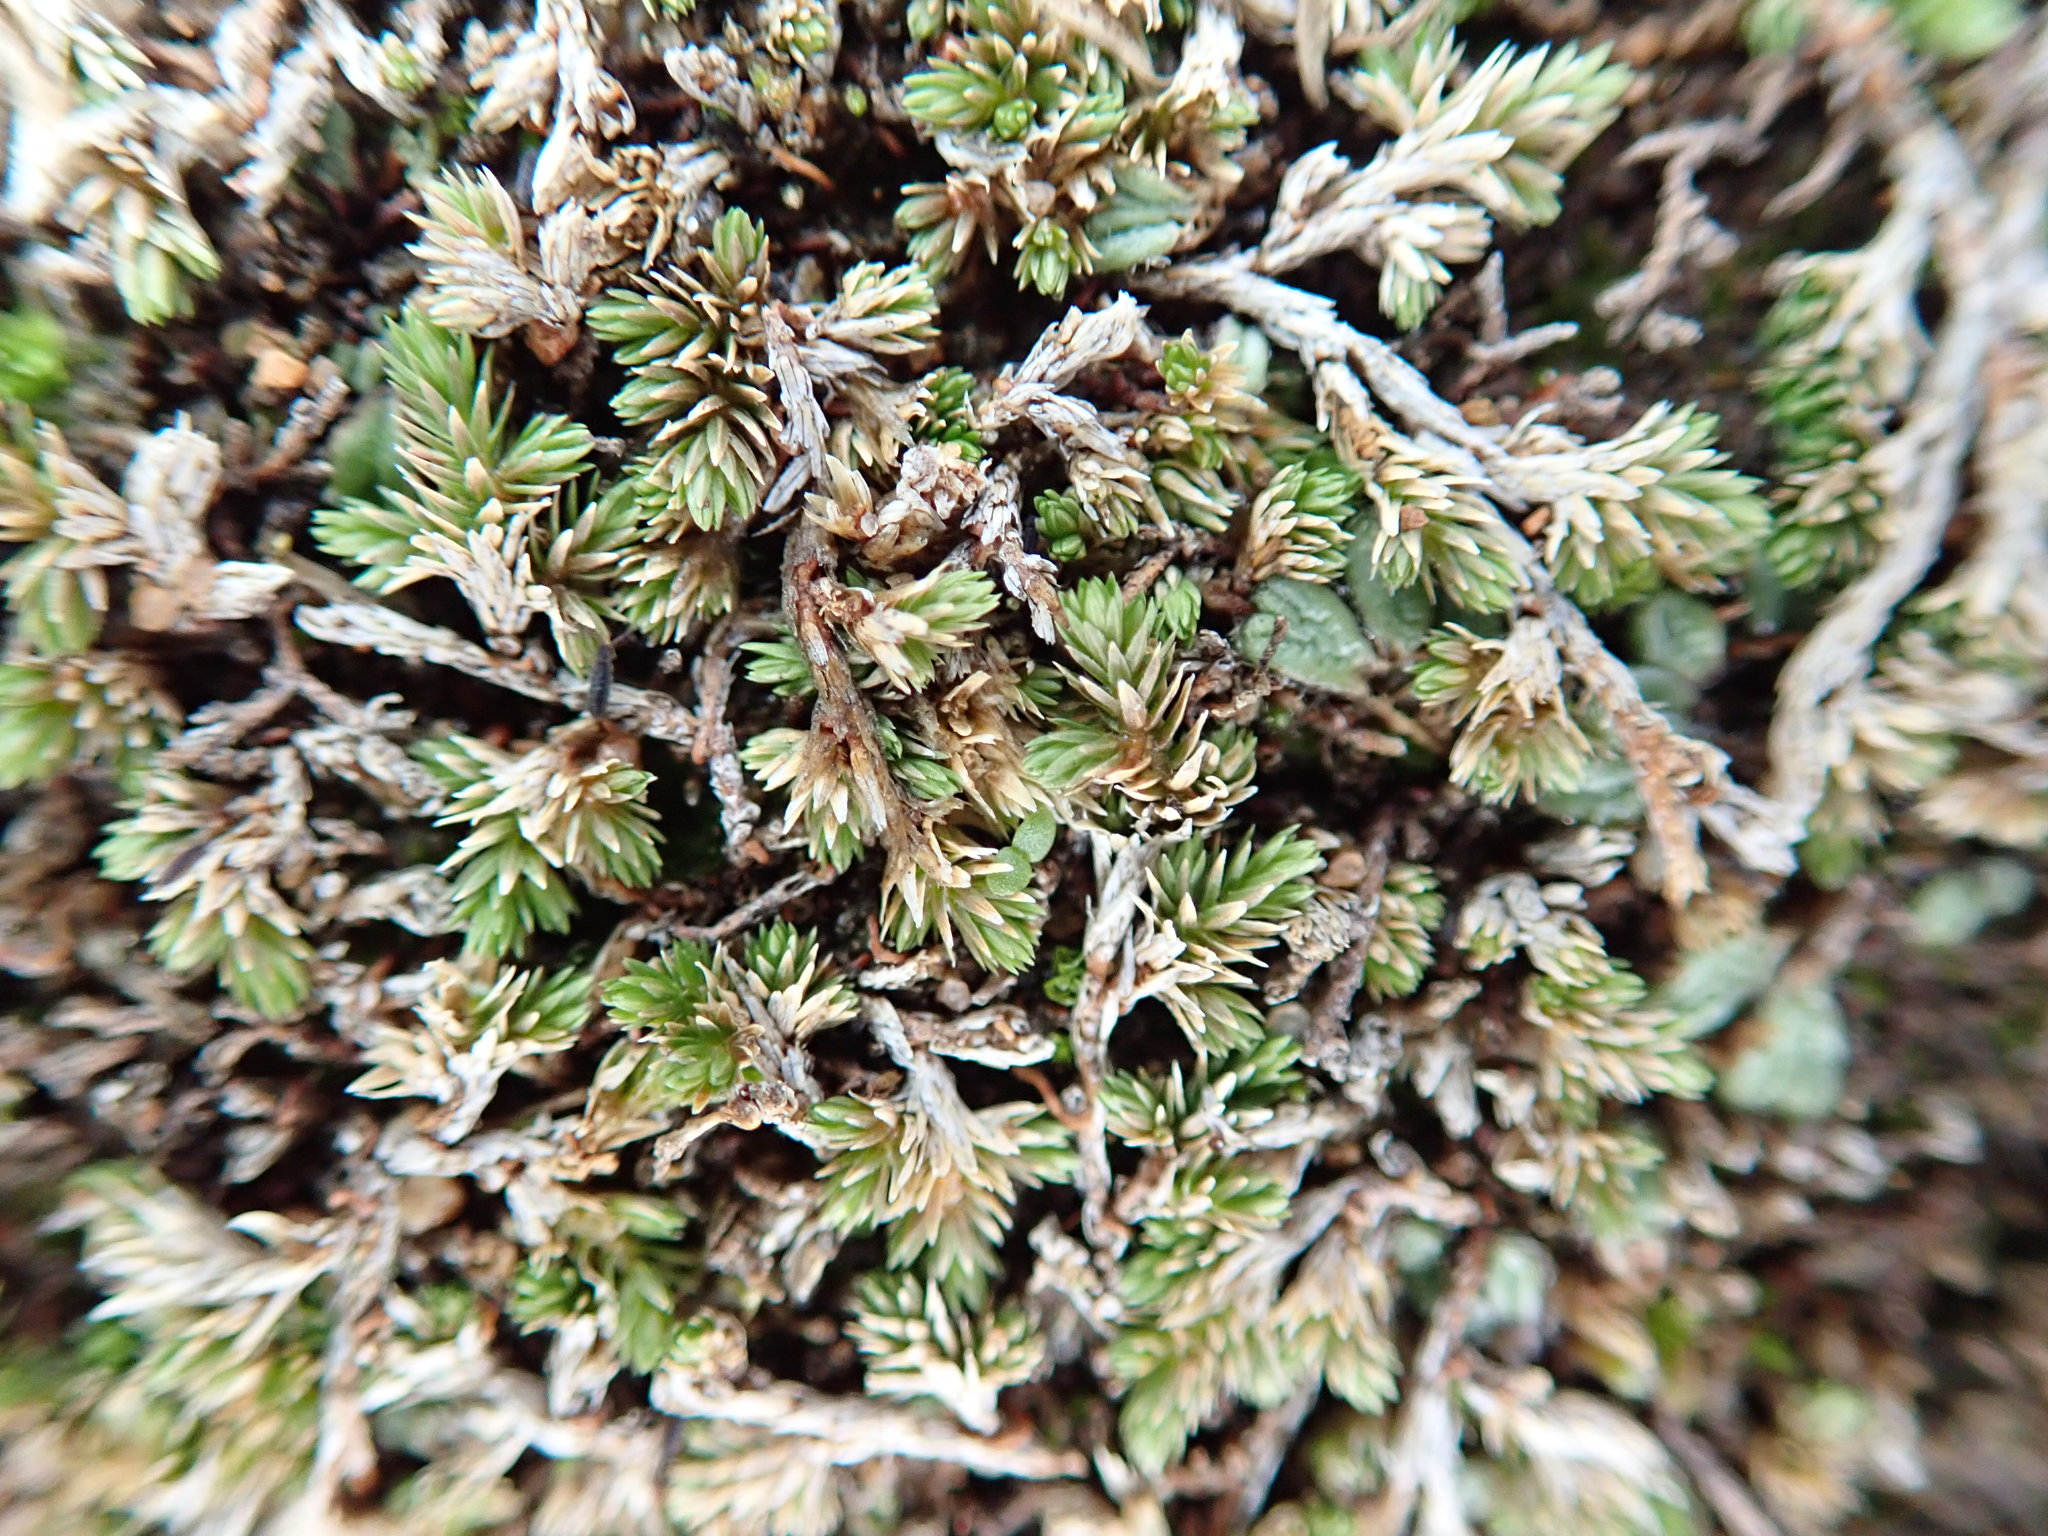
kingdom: Plantae
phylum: Tracheophyta
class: Lycopodiopsida
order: Selaginellales
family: Selaginellaceae
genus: Selaginella
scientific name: Selaginella cinerascens
